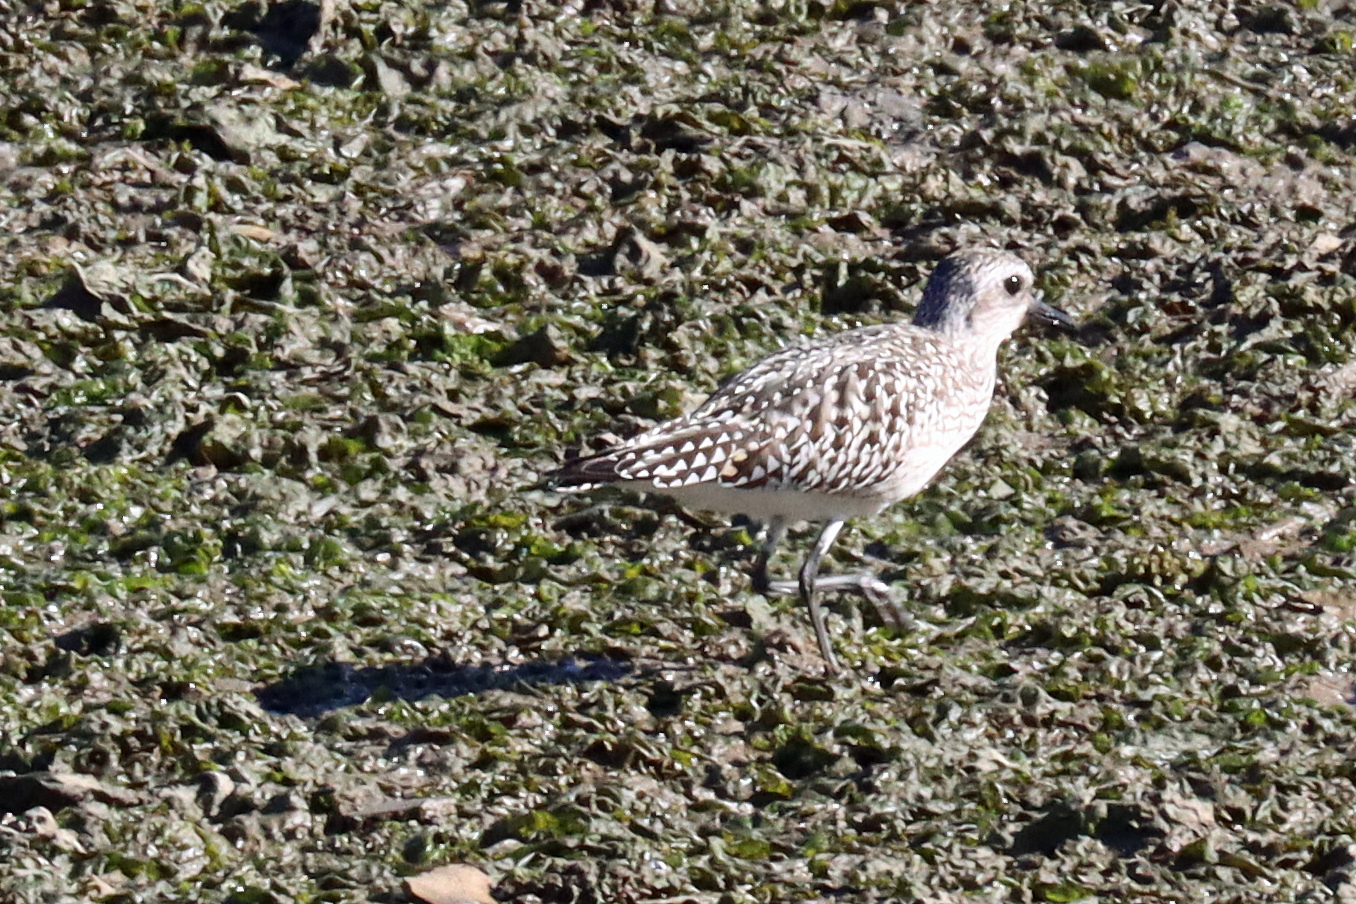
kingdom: Animalia
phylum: Chordata
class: Aves
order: Charadriiformes
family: Charadriidae
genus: Pluvialis
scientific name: Pluvialis squatarola
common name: Grey plover
